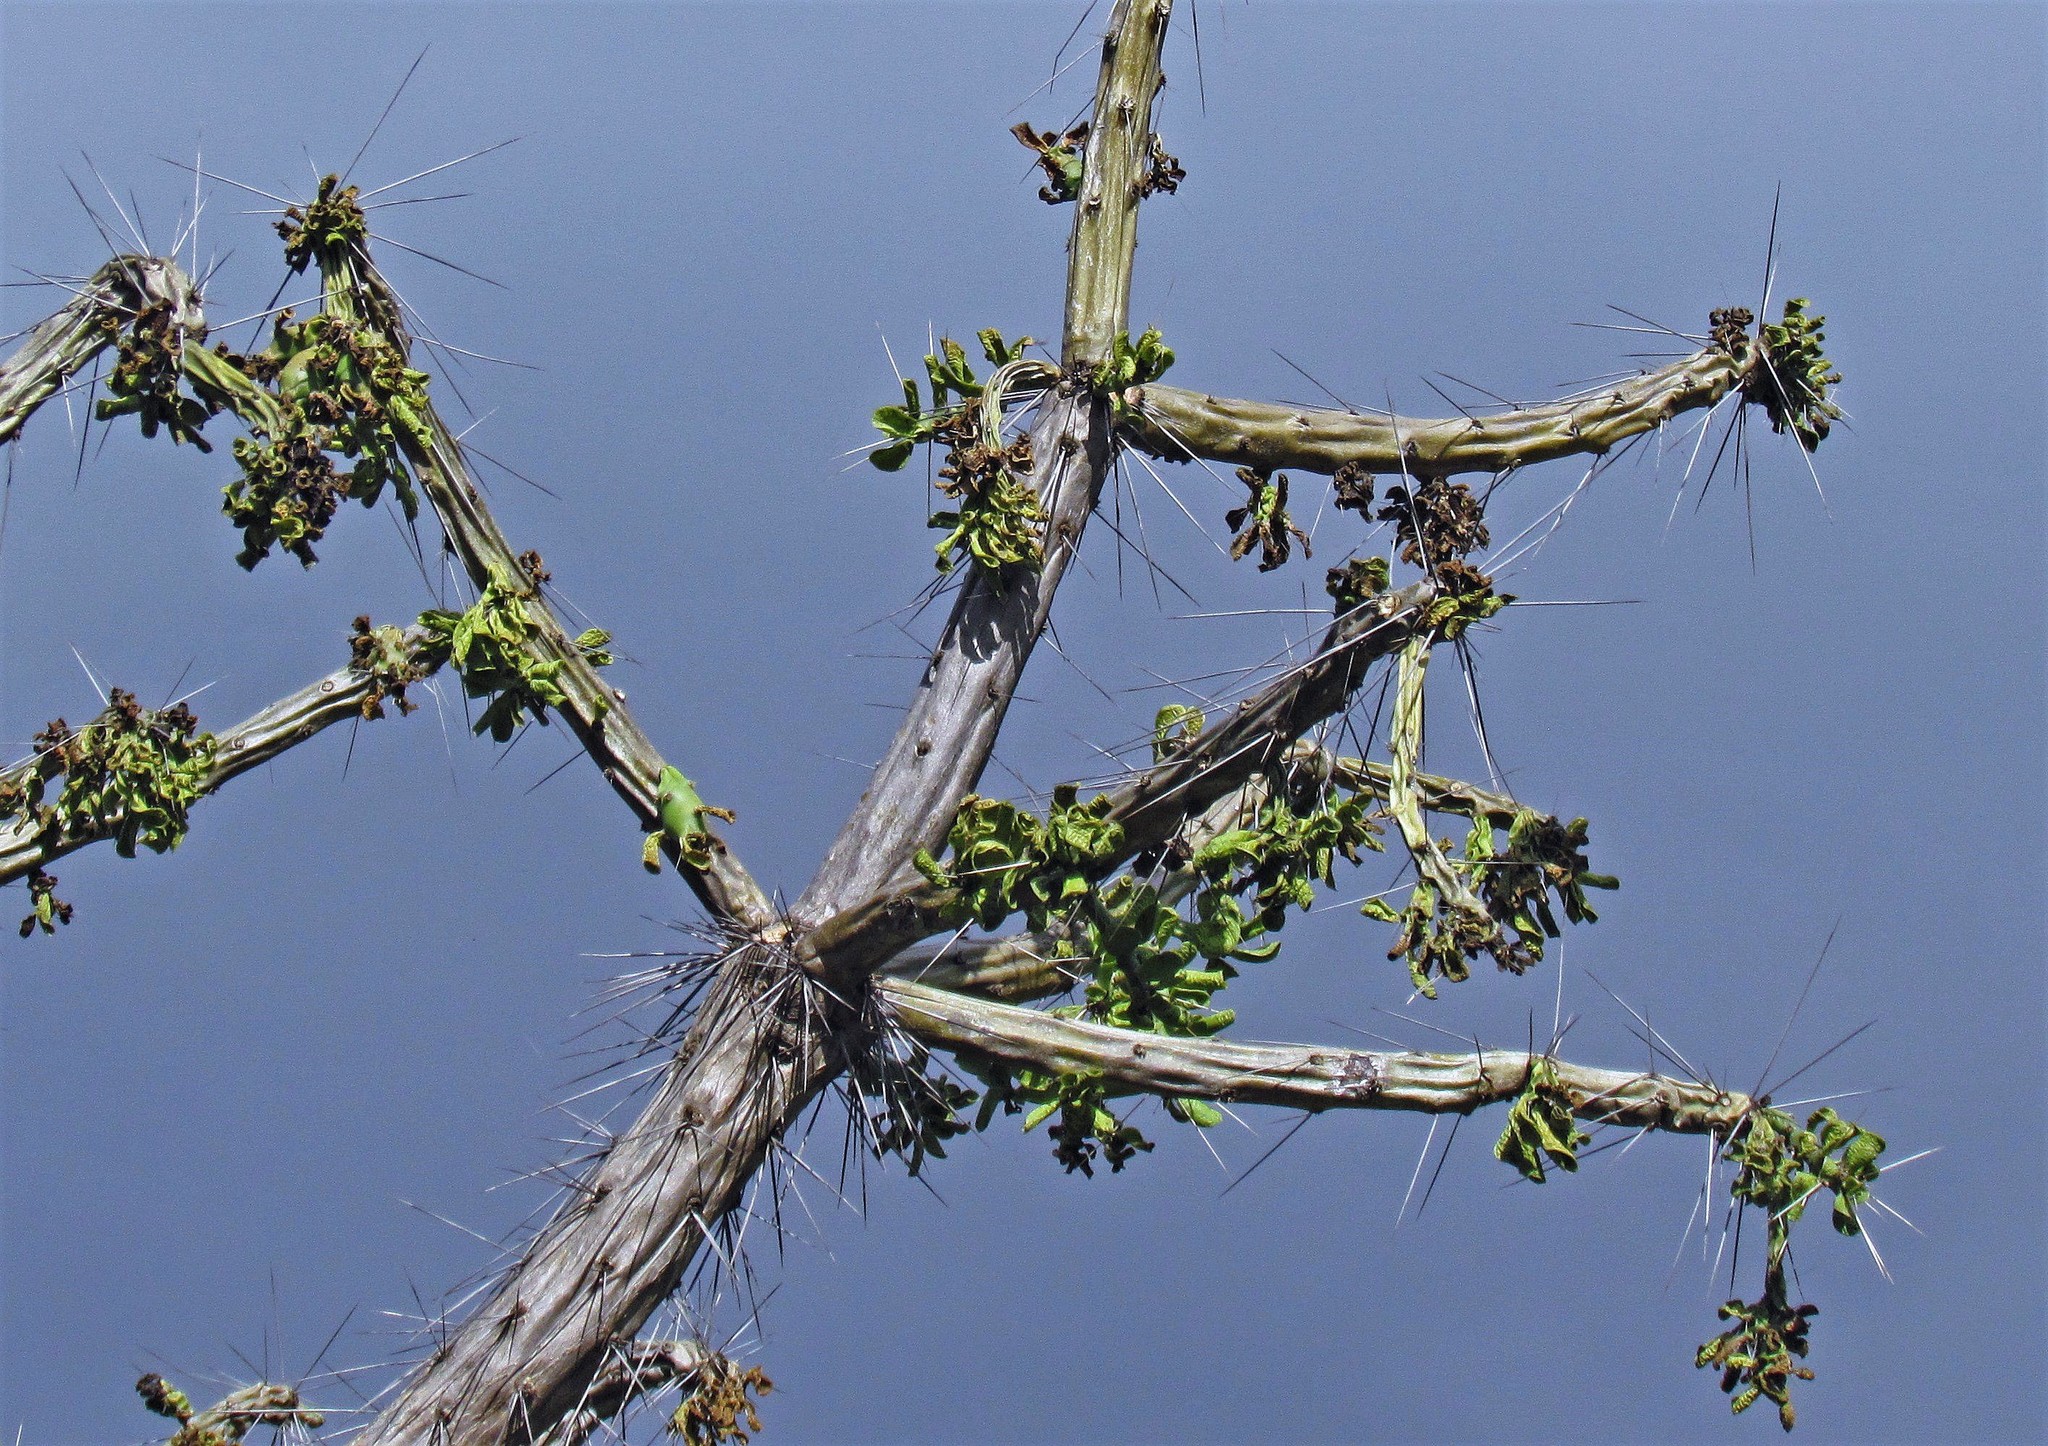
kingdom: Plantae
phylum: Tracheophyta
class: Magnoliopsida
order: Caryophyllales
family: Cactaceae
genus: Quiabentia
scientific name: Quiabentia verticillata
